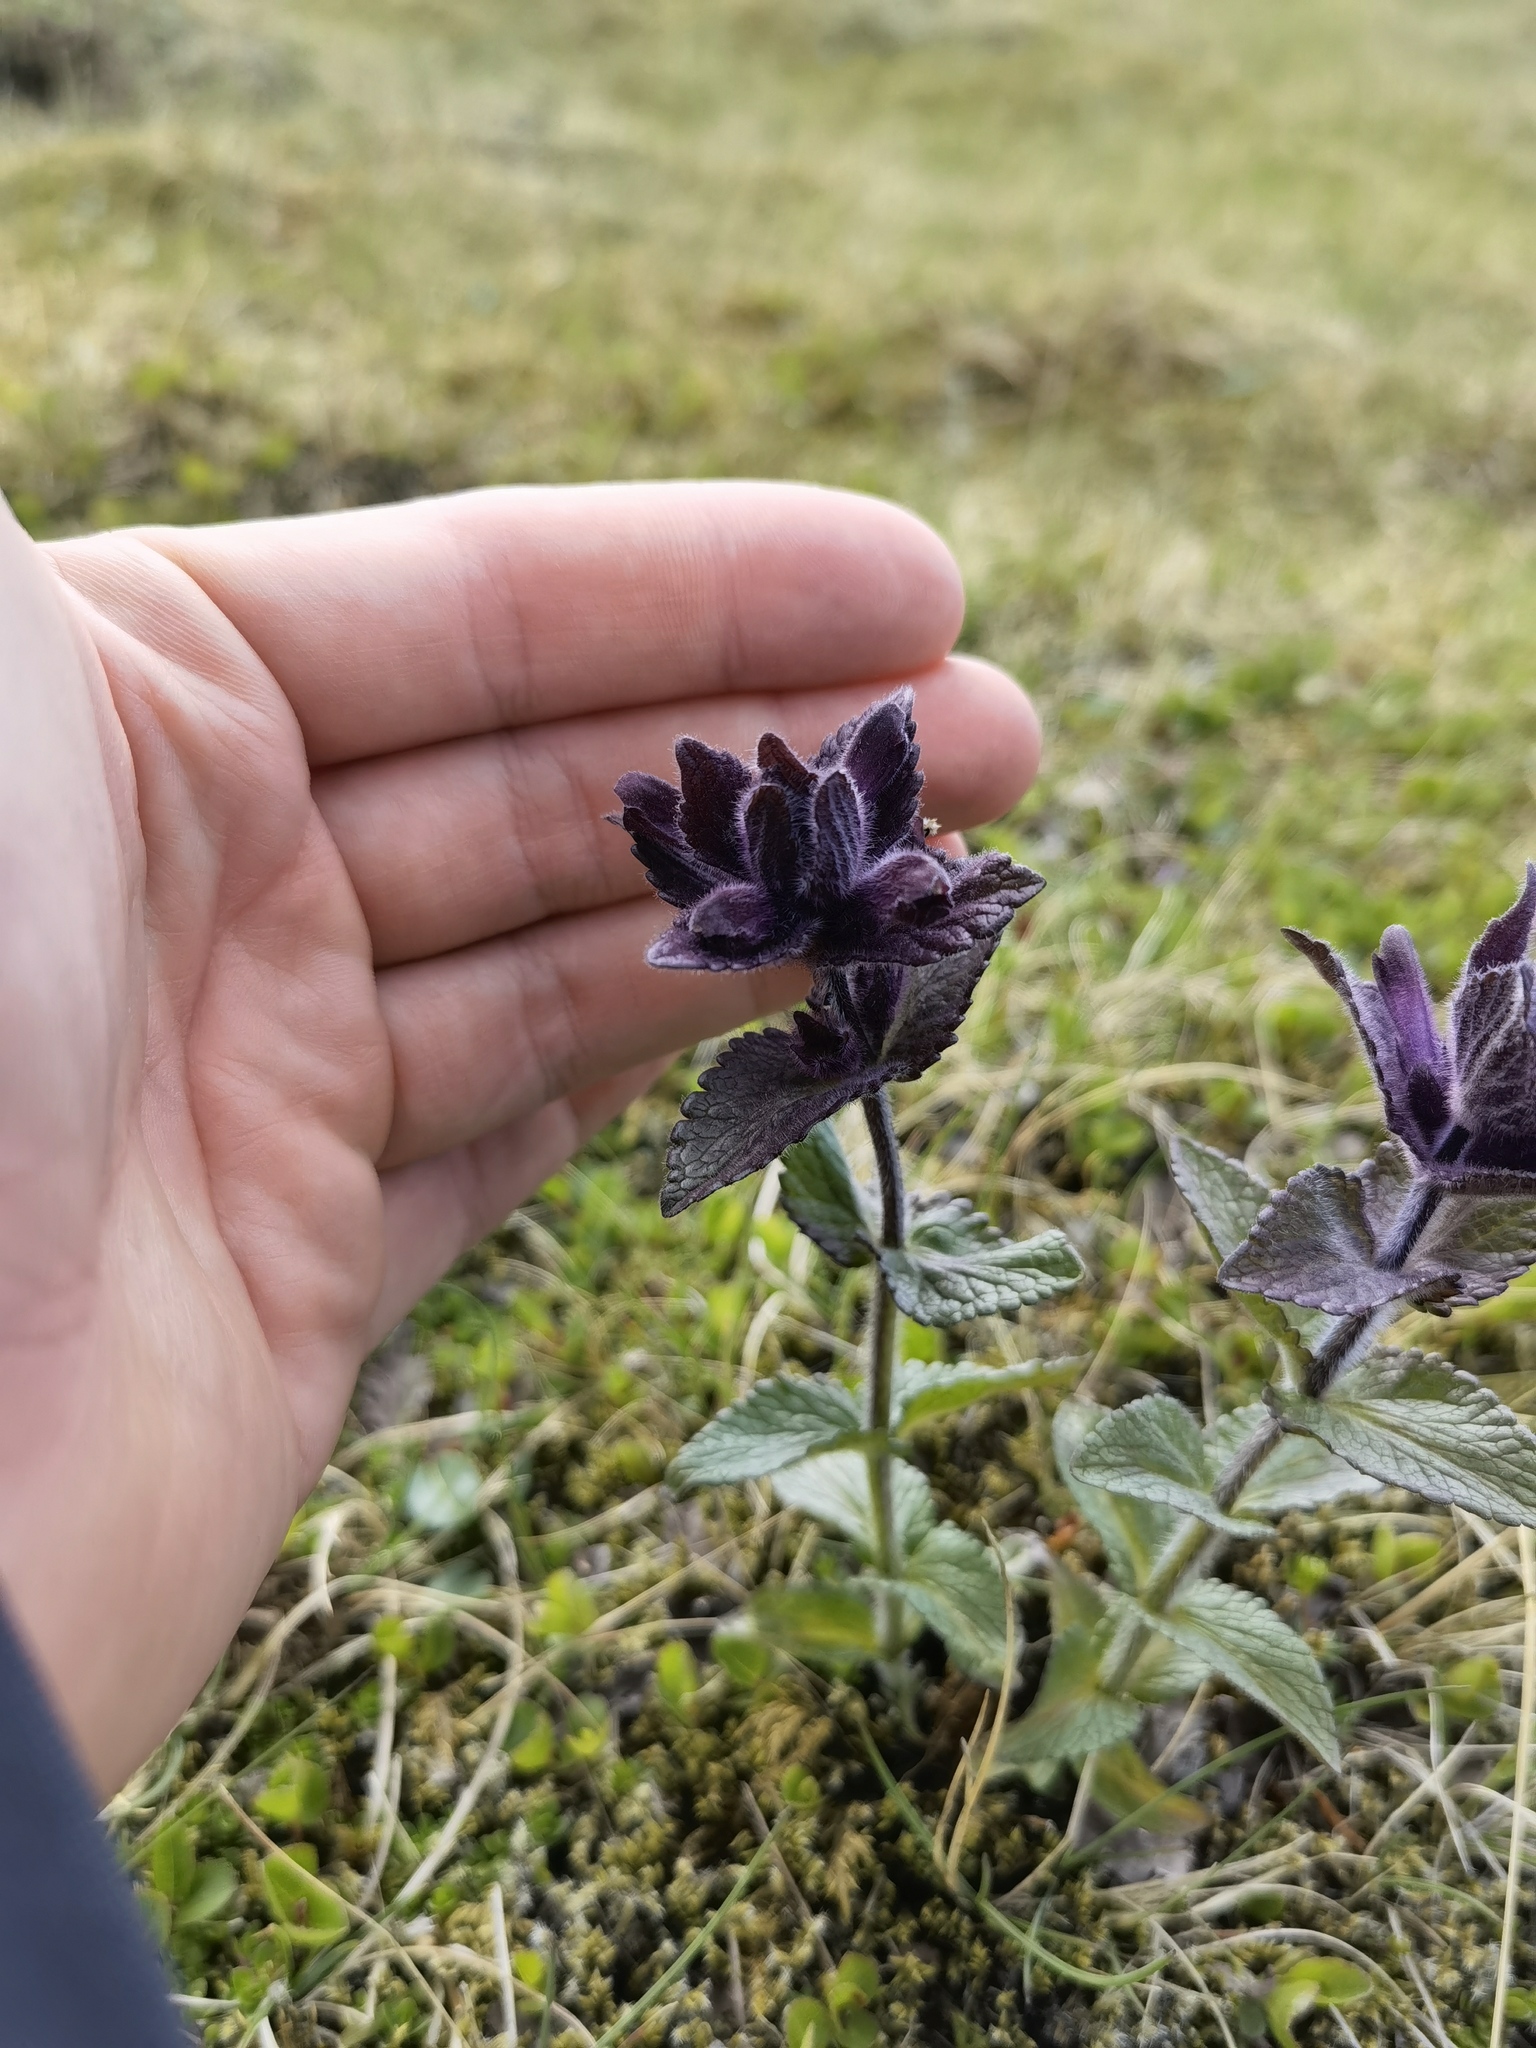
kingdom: Plantae
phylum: Tracheophyta
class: Magnoliopsida
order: Lamiales
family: Orobanchaceae
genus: Bartsia
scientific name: Bartsia alpina
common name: Alpine bartsia
